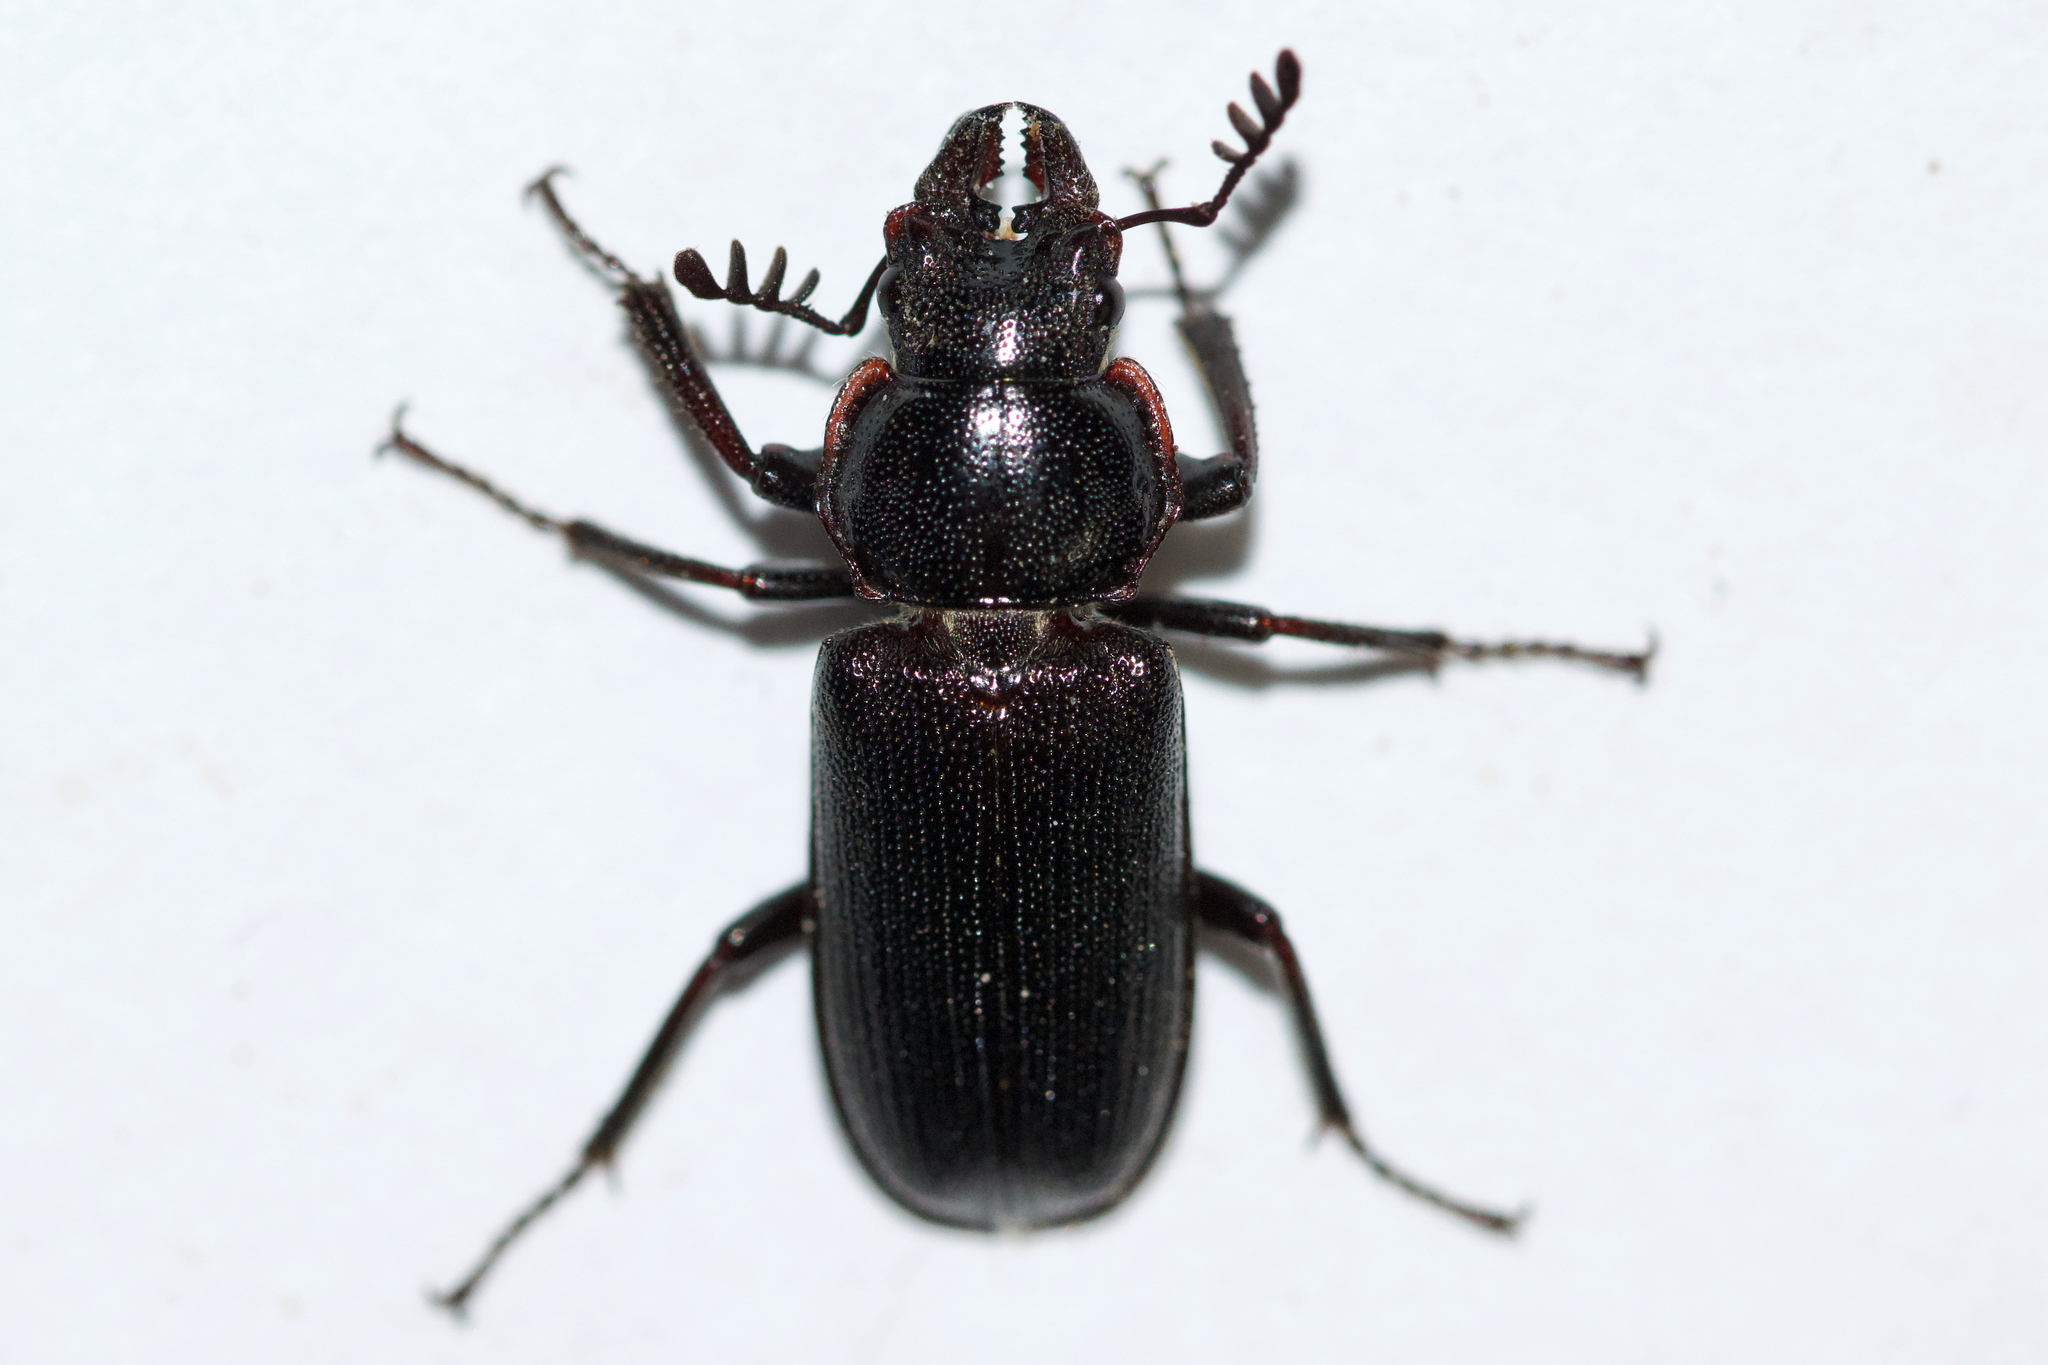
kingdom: Animalia
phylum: Arthropoda
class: Insecta
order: Coleoptera
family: Lucanidae
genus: Platycerus
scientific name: Platycerus depressus
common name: Aspen stag beetle
